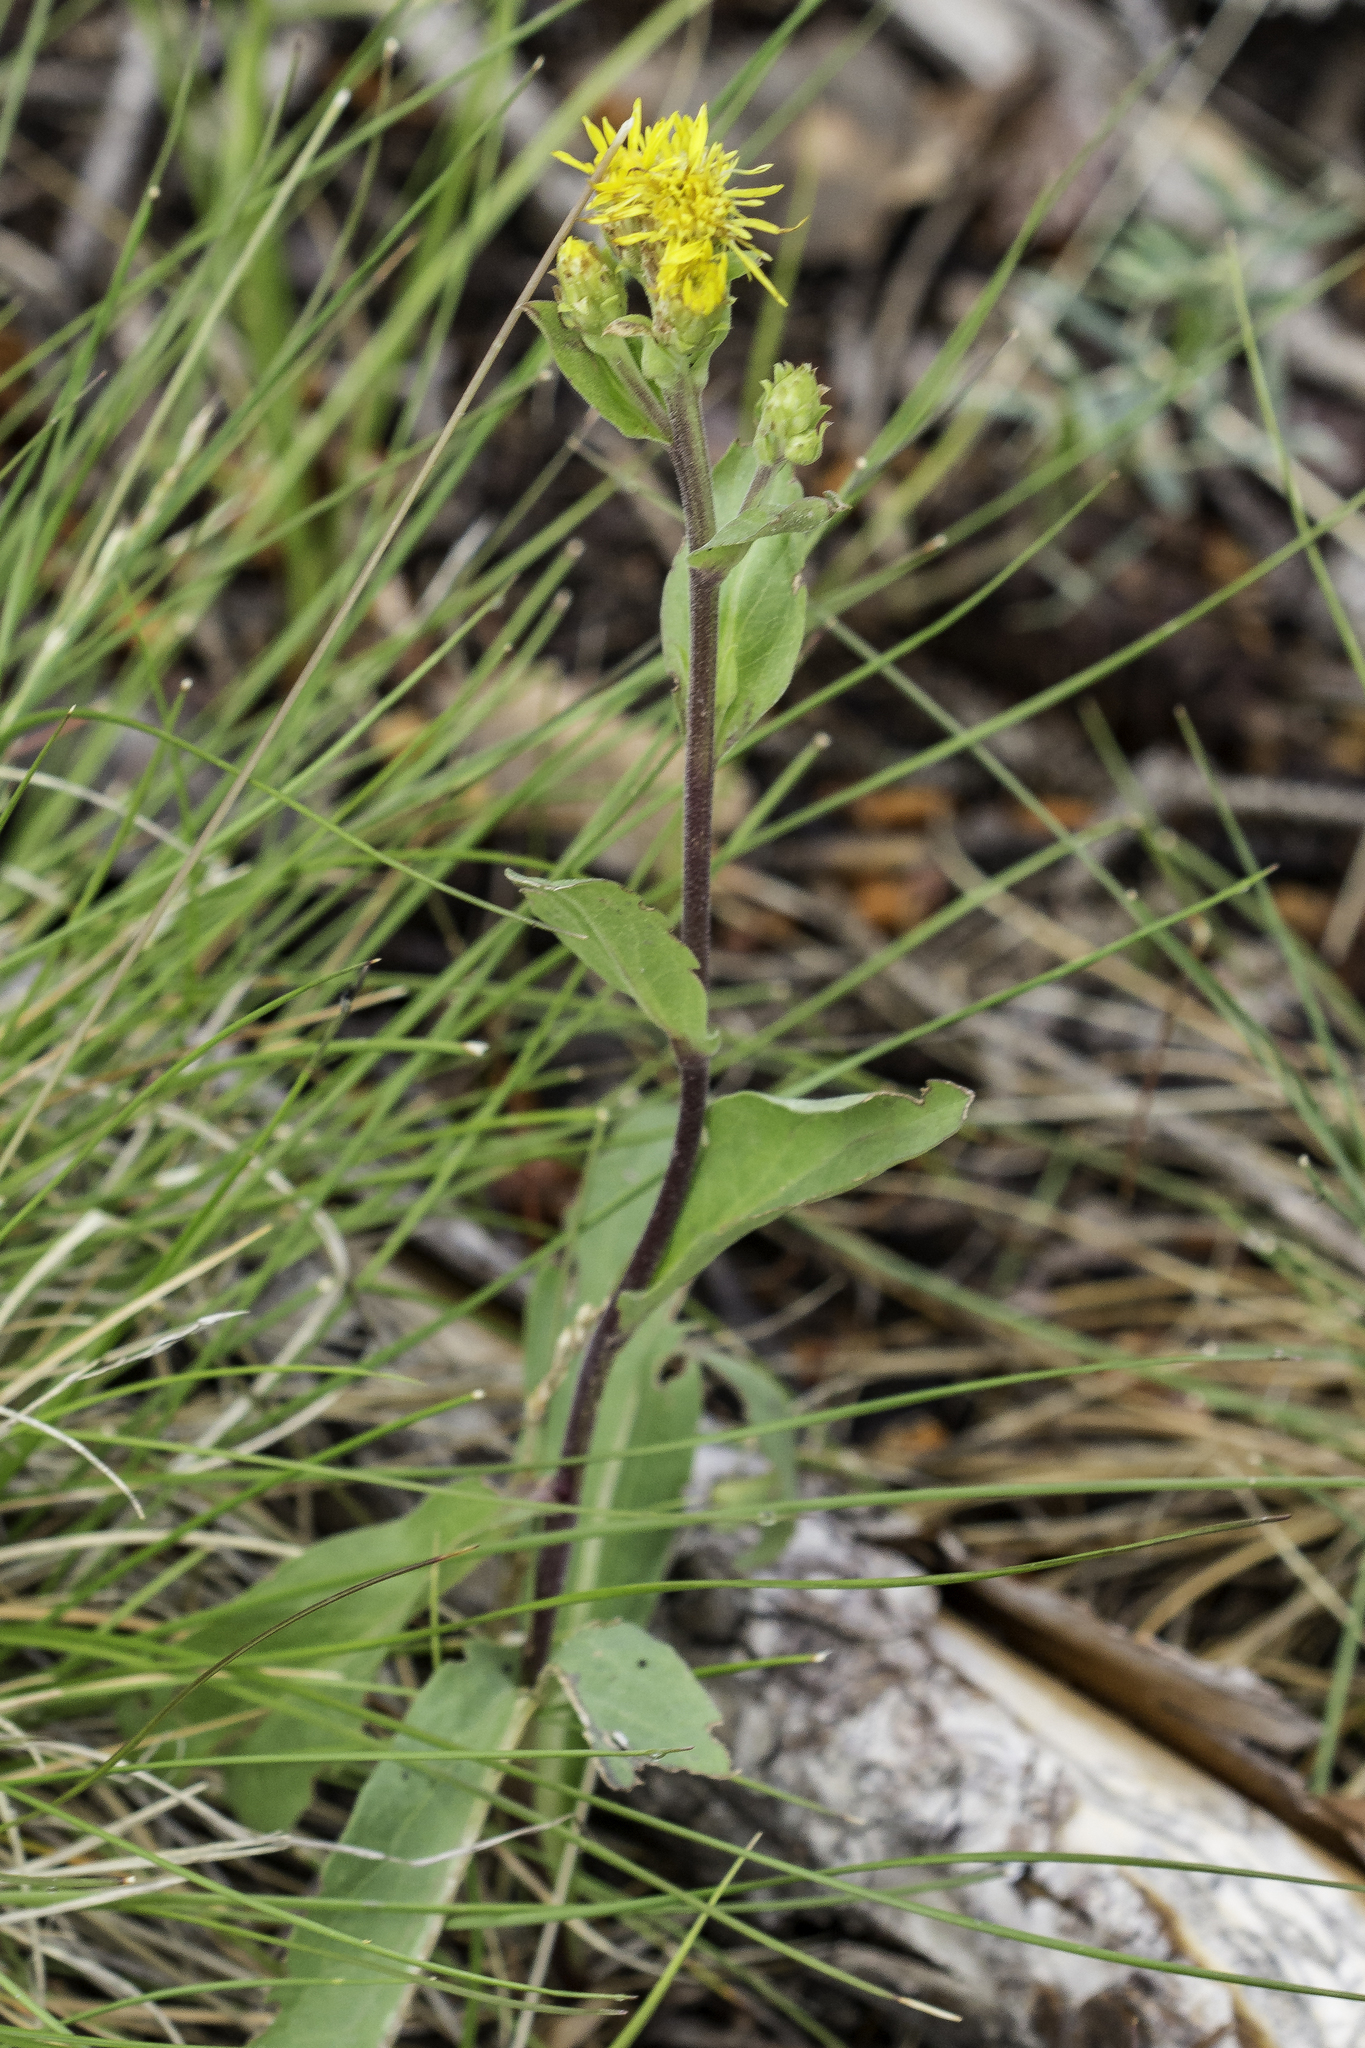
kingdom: Plantae
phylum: Tracheophyta
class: Magnoliopsida
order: Asterales
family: Asteraceae
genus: Oreochrysum
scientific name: Oreochrysum parryi
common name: Parry's goldenweed
